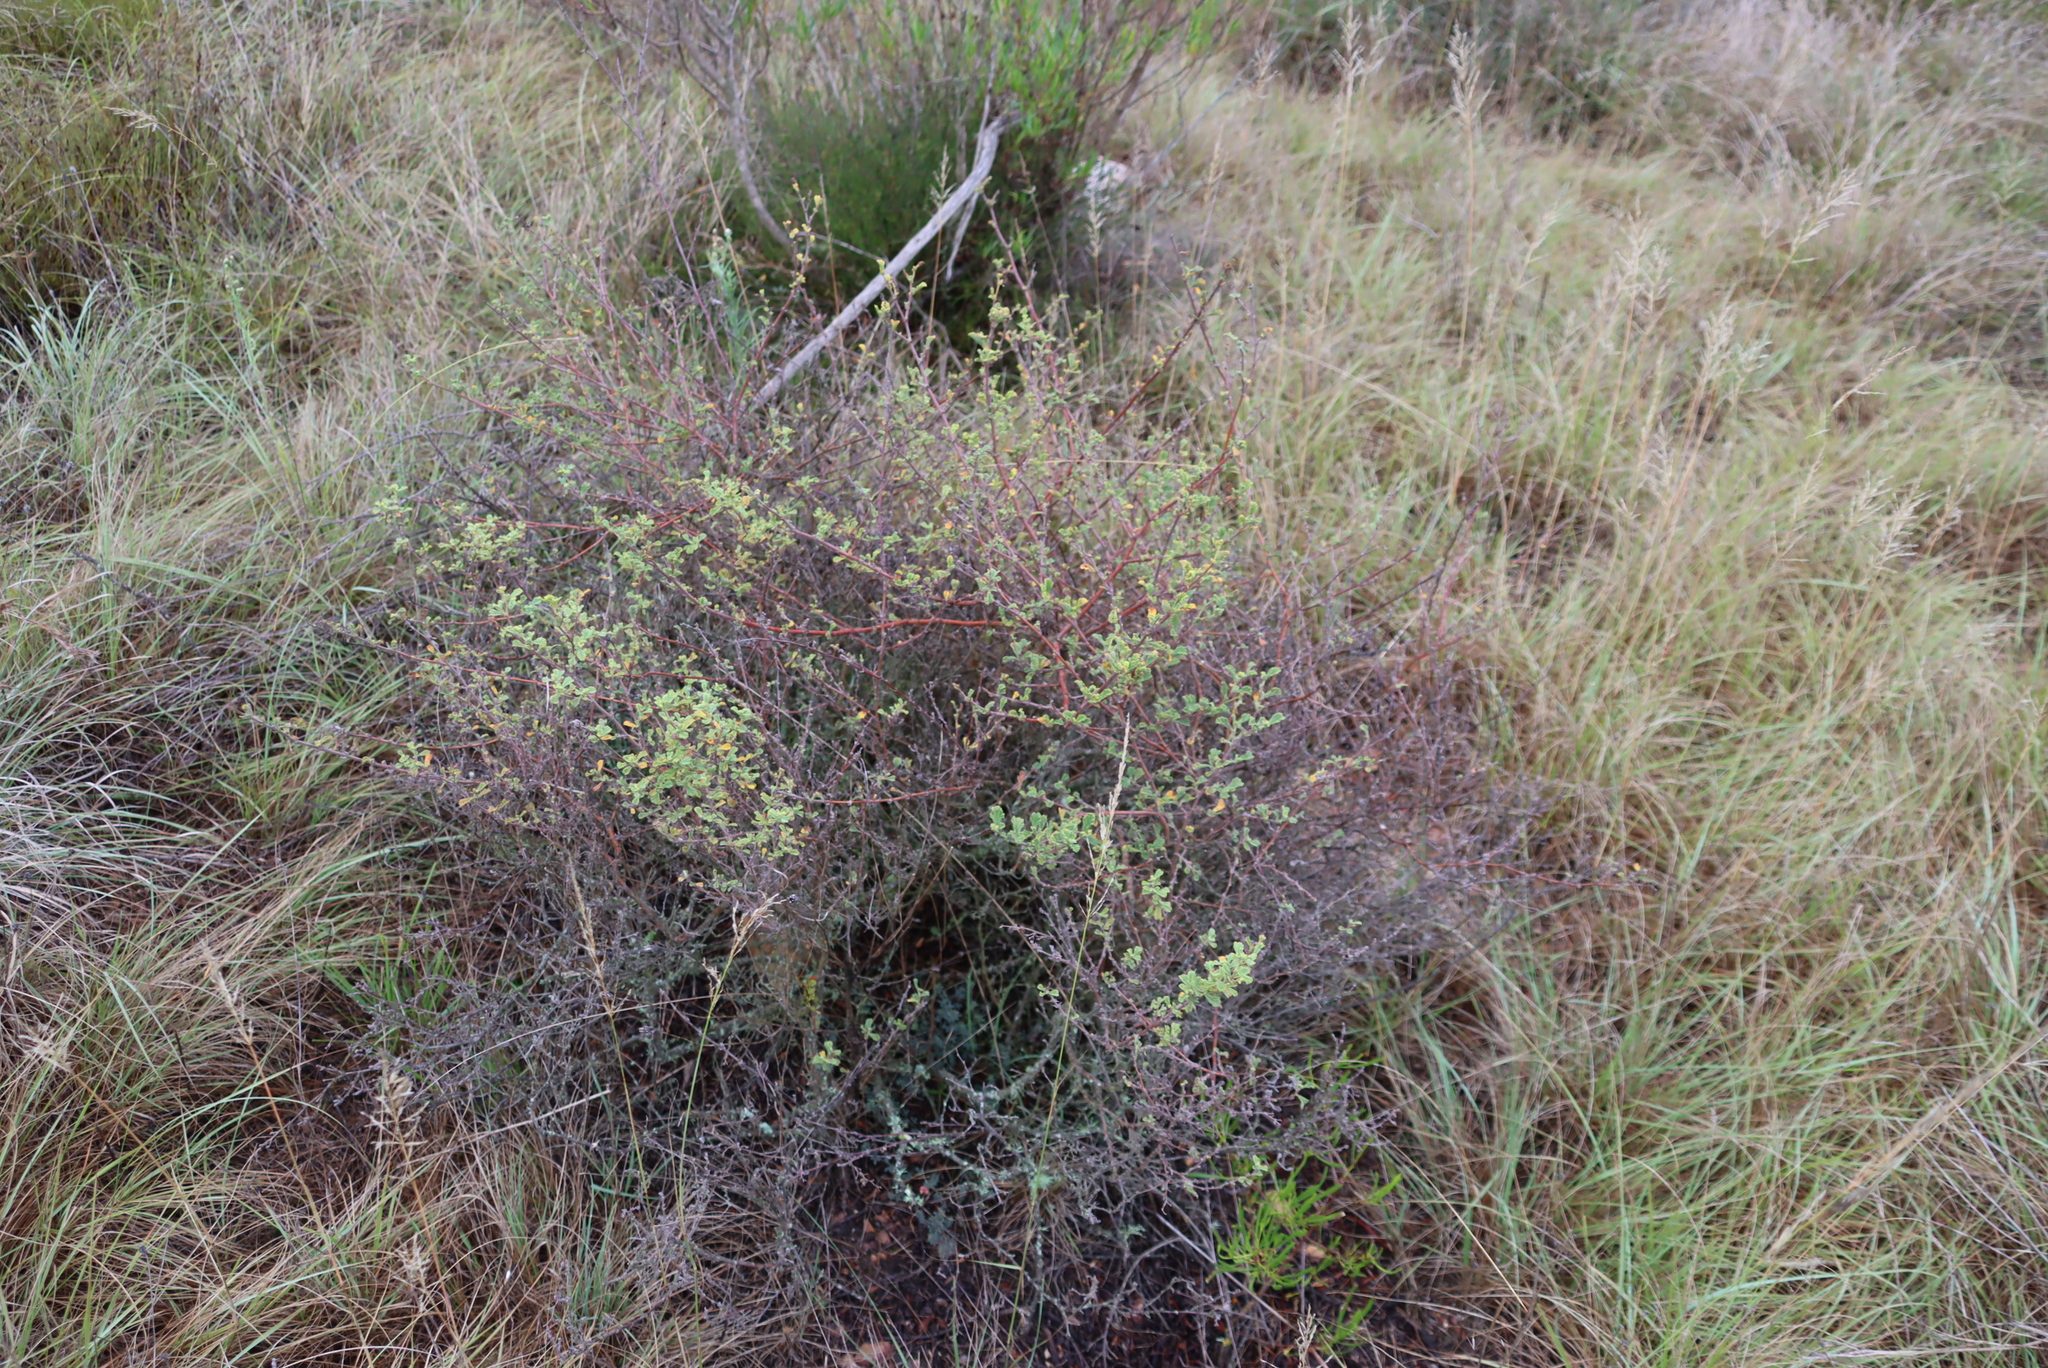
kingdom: Plantae
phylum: Tracheophyta
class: Magnoliopsida
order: Malvales
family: Malvaceae
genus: Hermannia
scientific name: Hermannia alnifolia
